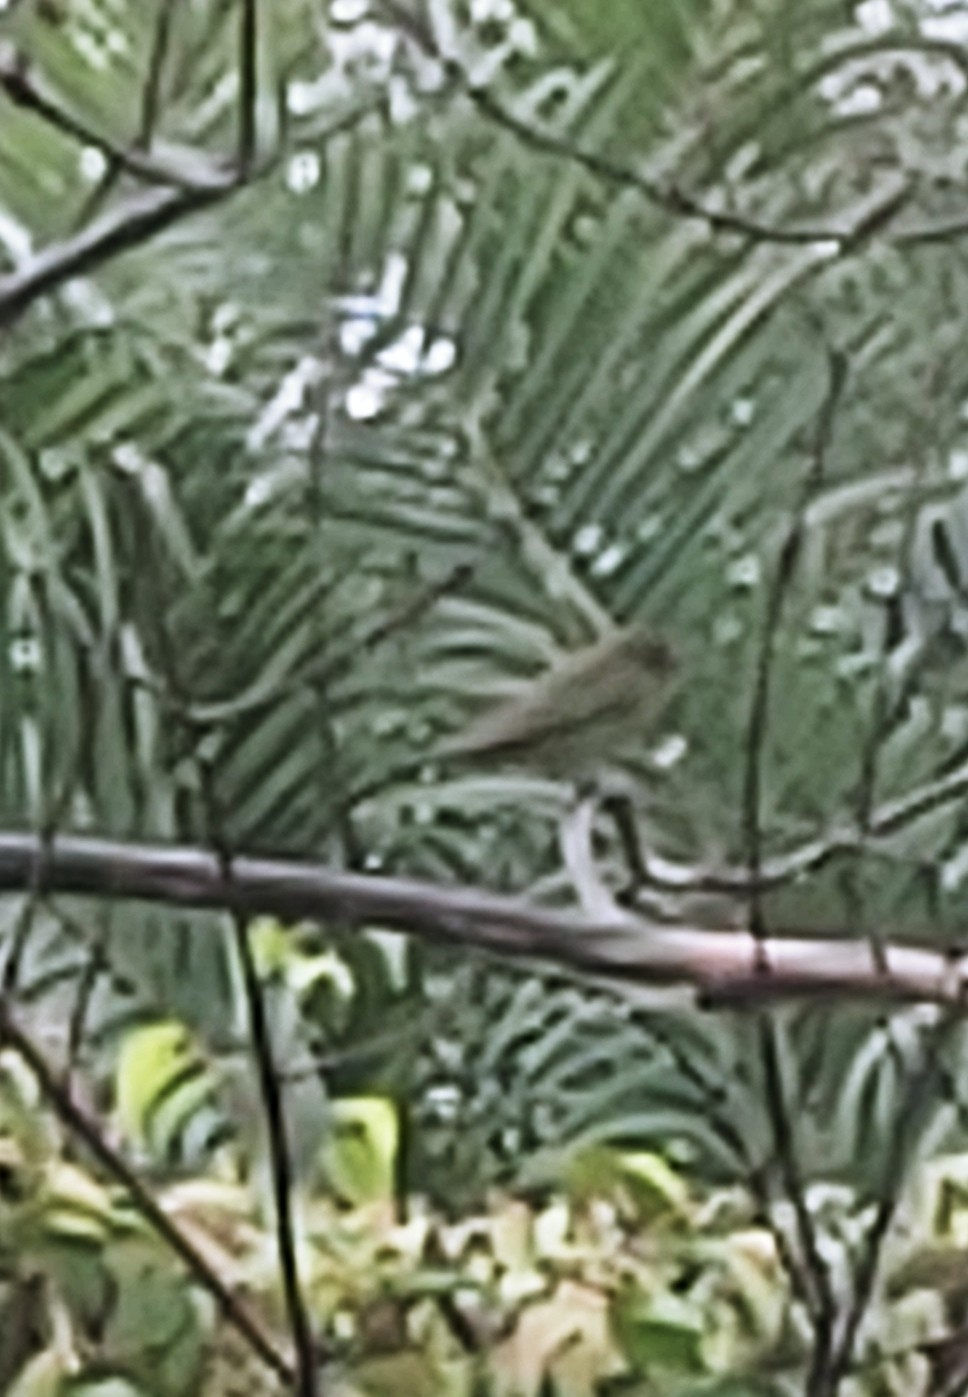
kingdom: Animalia
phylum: Chordata
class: Aves
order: Passeriformes
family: Cardinalidae
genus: Passerina
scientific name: Passerina ciris
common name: Painted bunting
